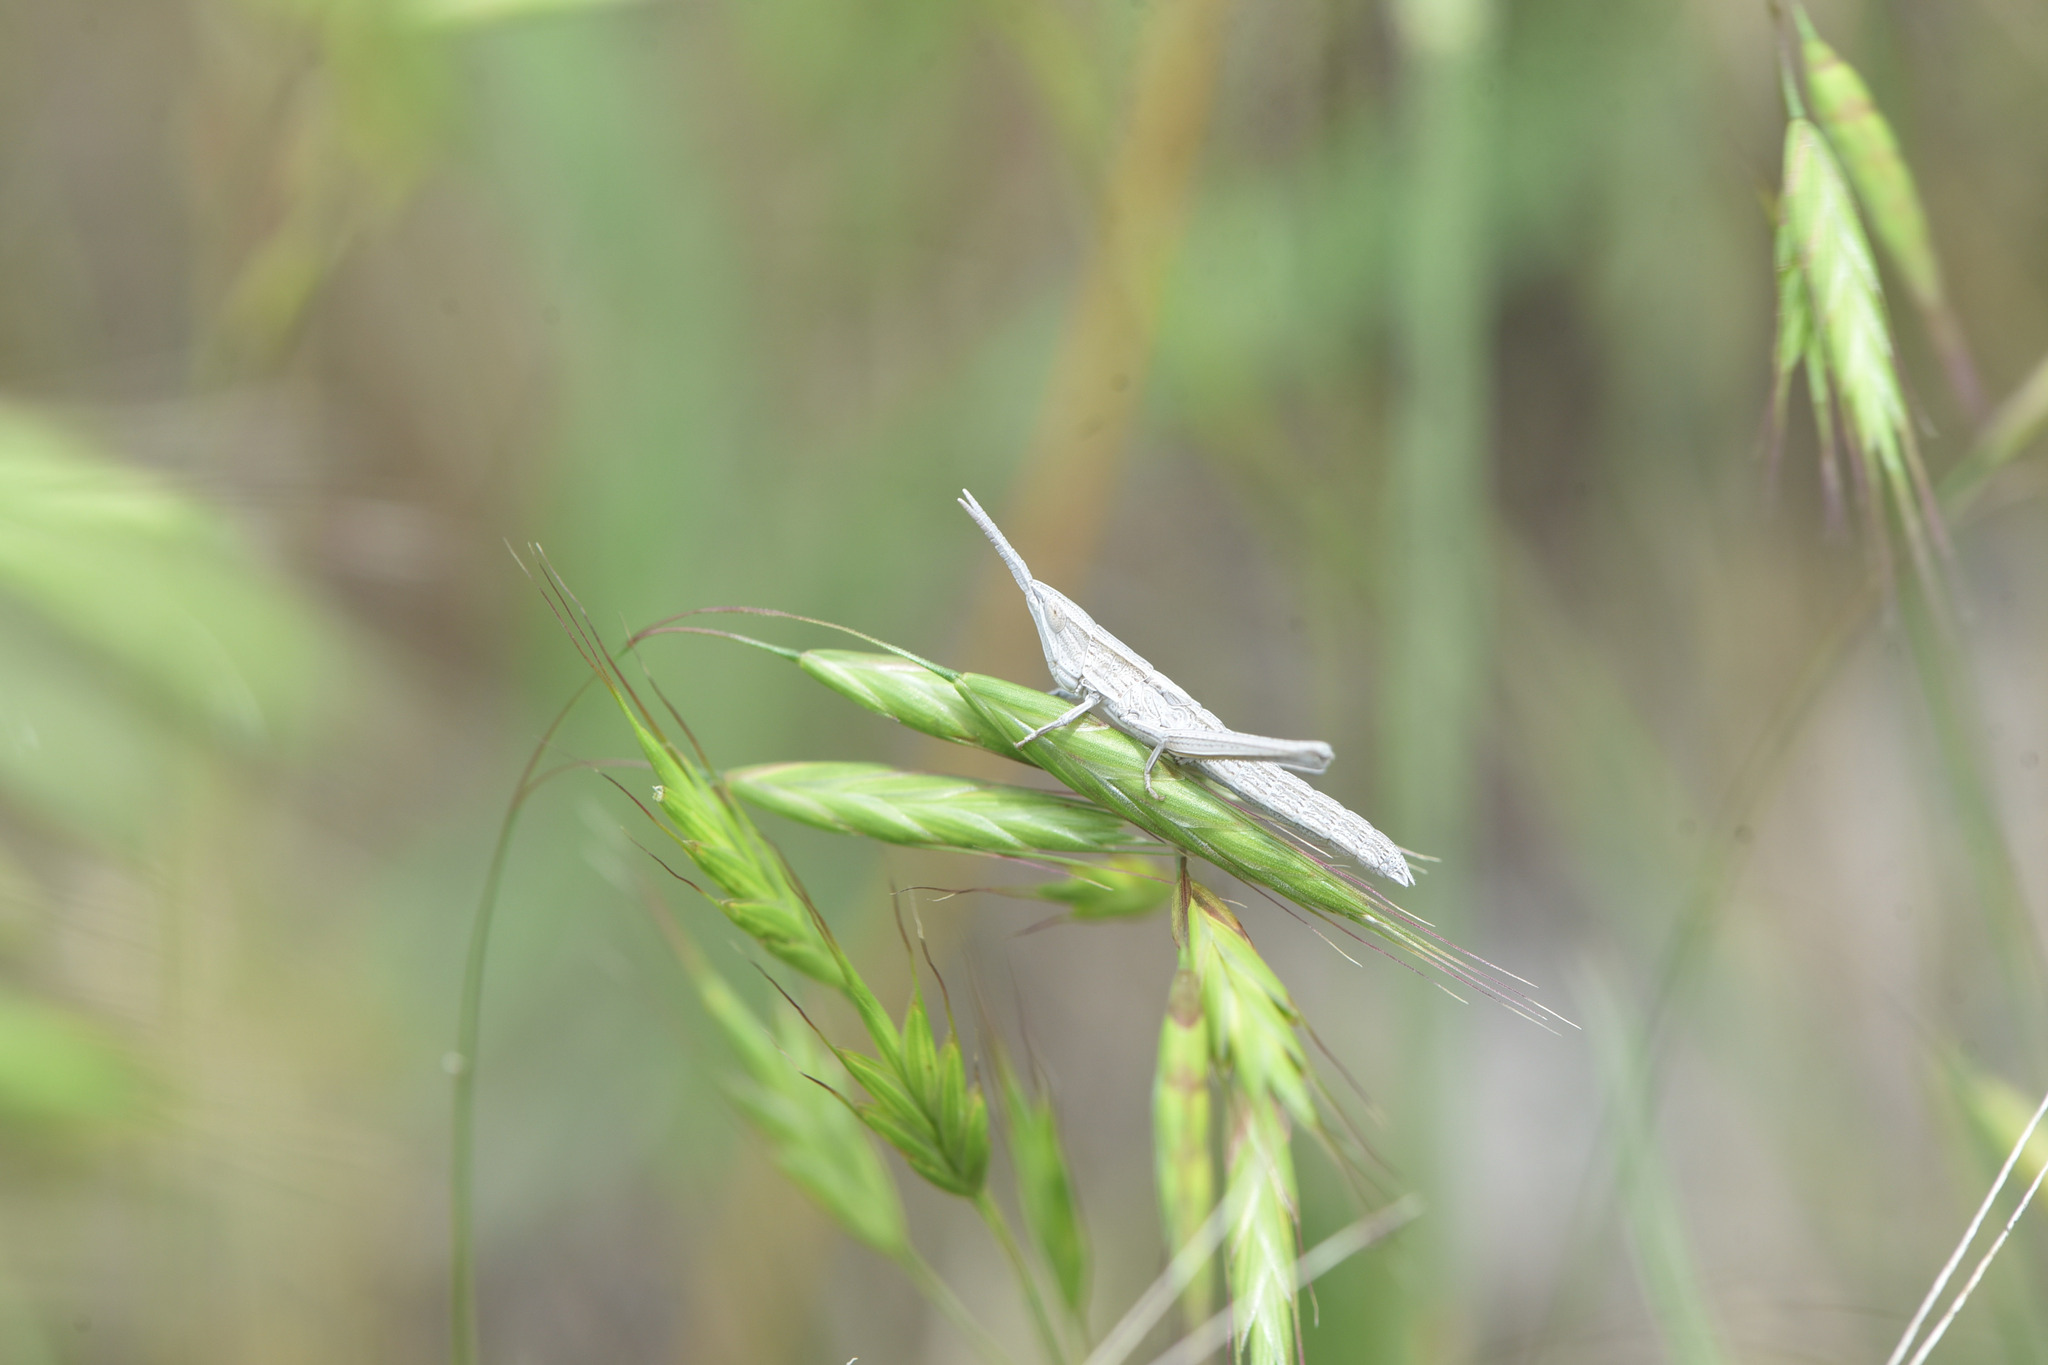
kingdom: Animalia
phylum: Arthropoda
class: Insecta
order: Orthoptera
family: Acrididae
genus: Pseudopomala
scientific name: Pseudopomala brachyptera
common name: Bunchgrass grasshopper
